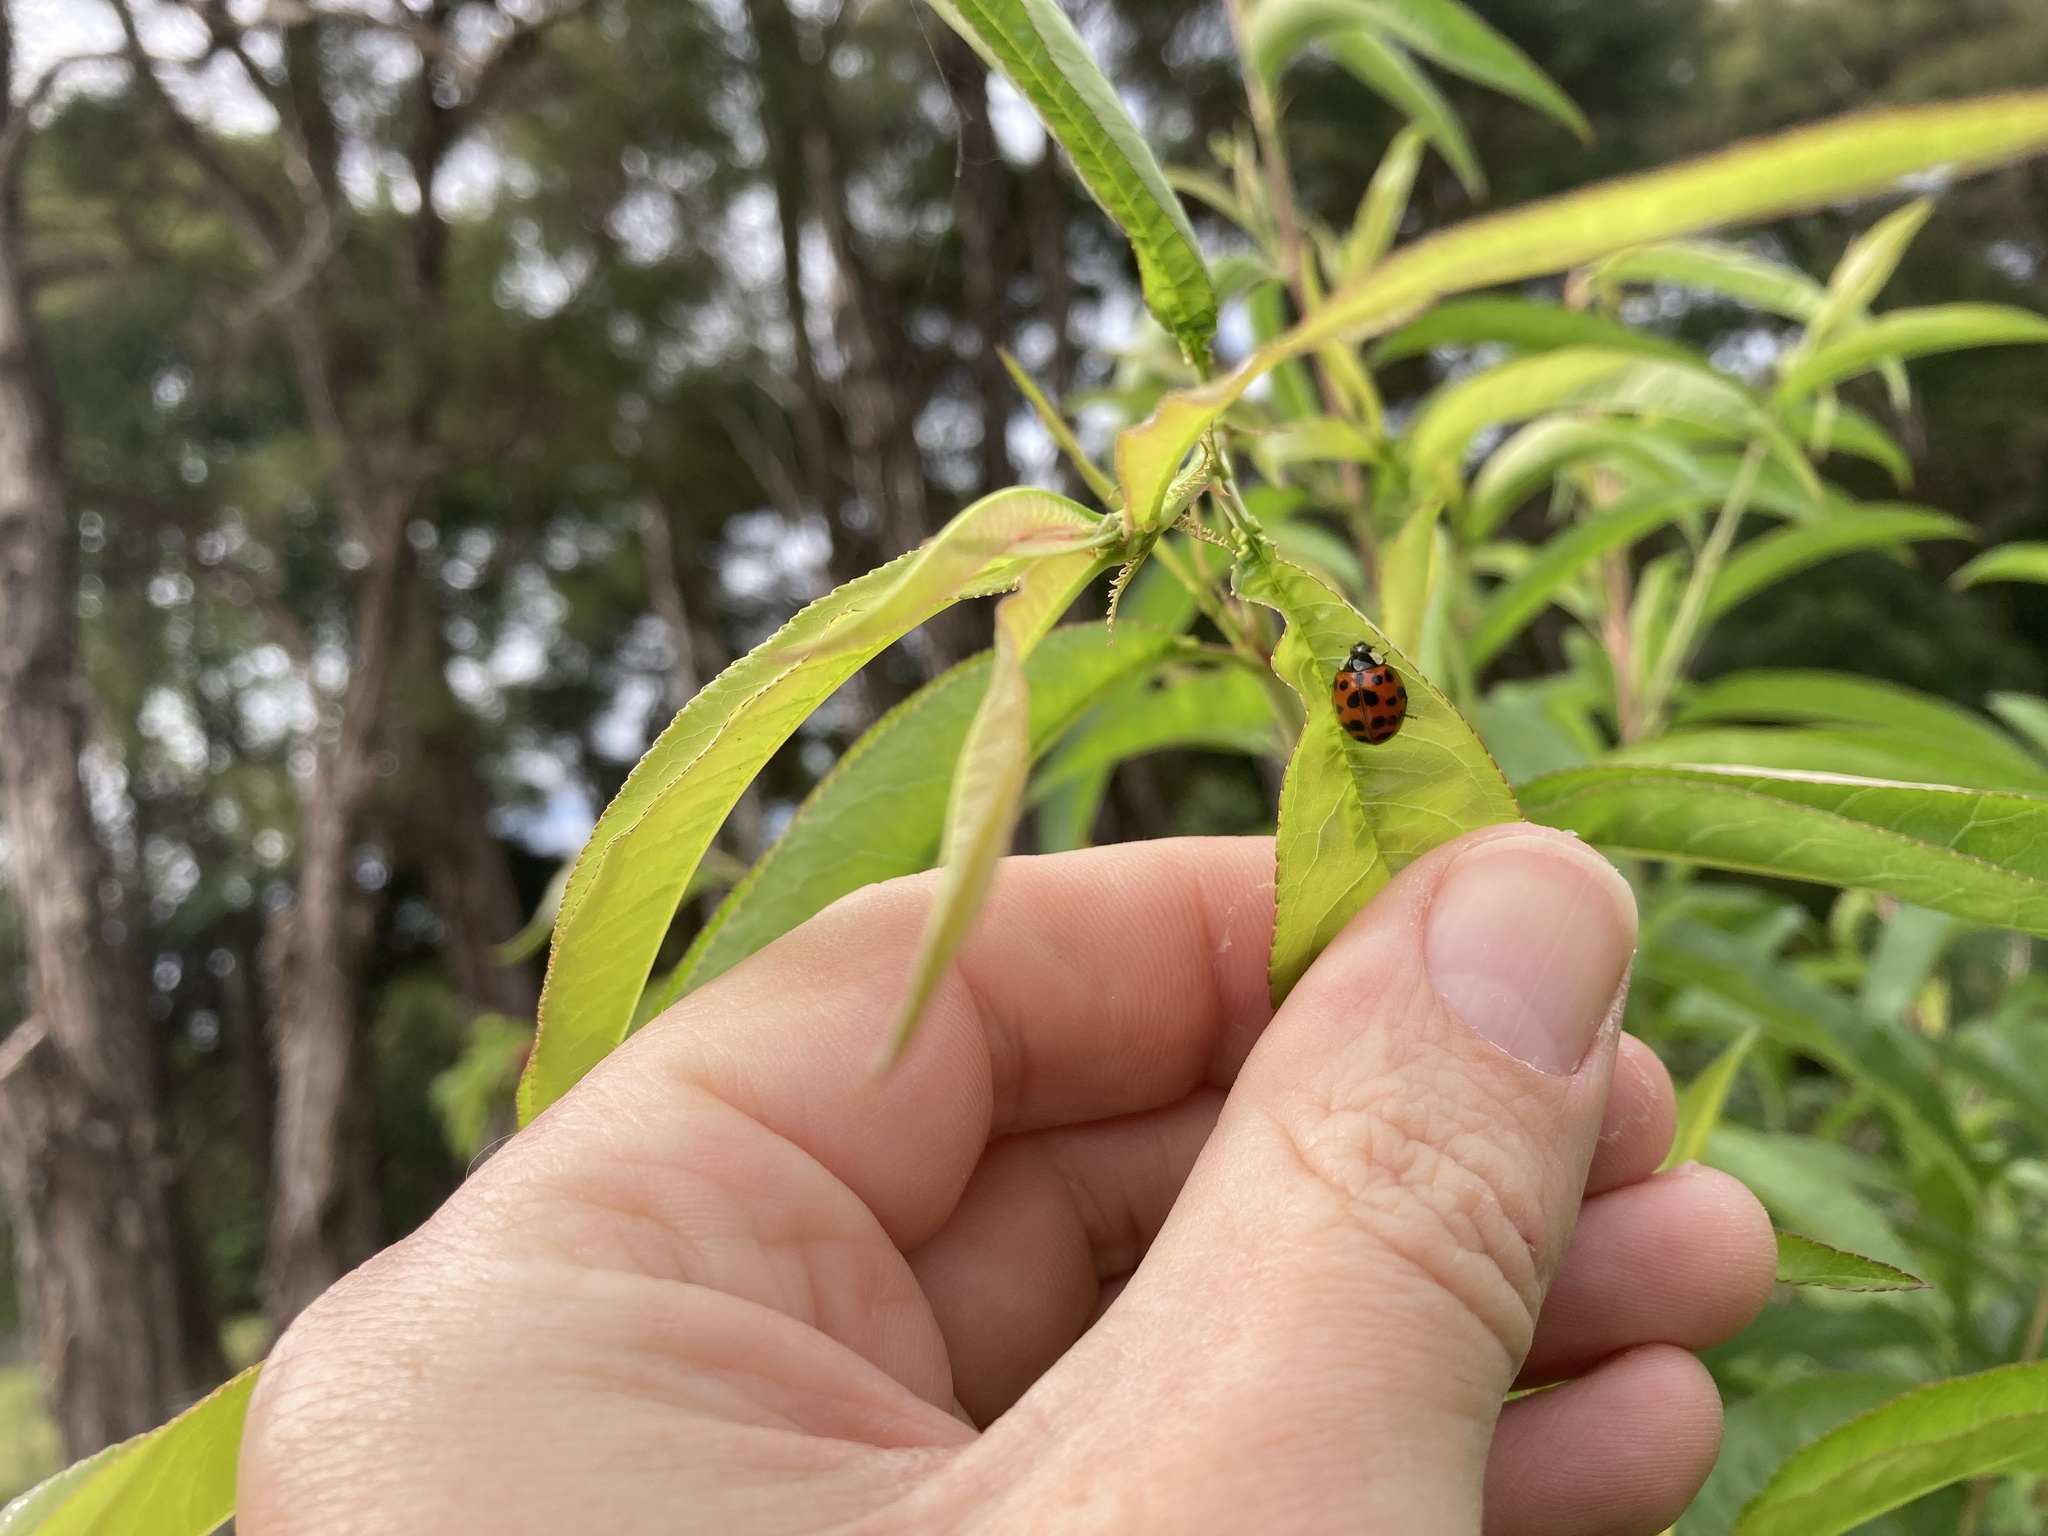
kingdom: Animalia
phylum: Arthropoda
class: Insecta
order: Coleoptera
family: Coccinellidae
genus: Harmonia
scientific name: Harmonia axyridis
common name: Harlequin ladybird
